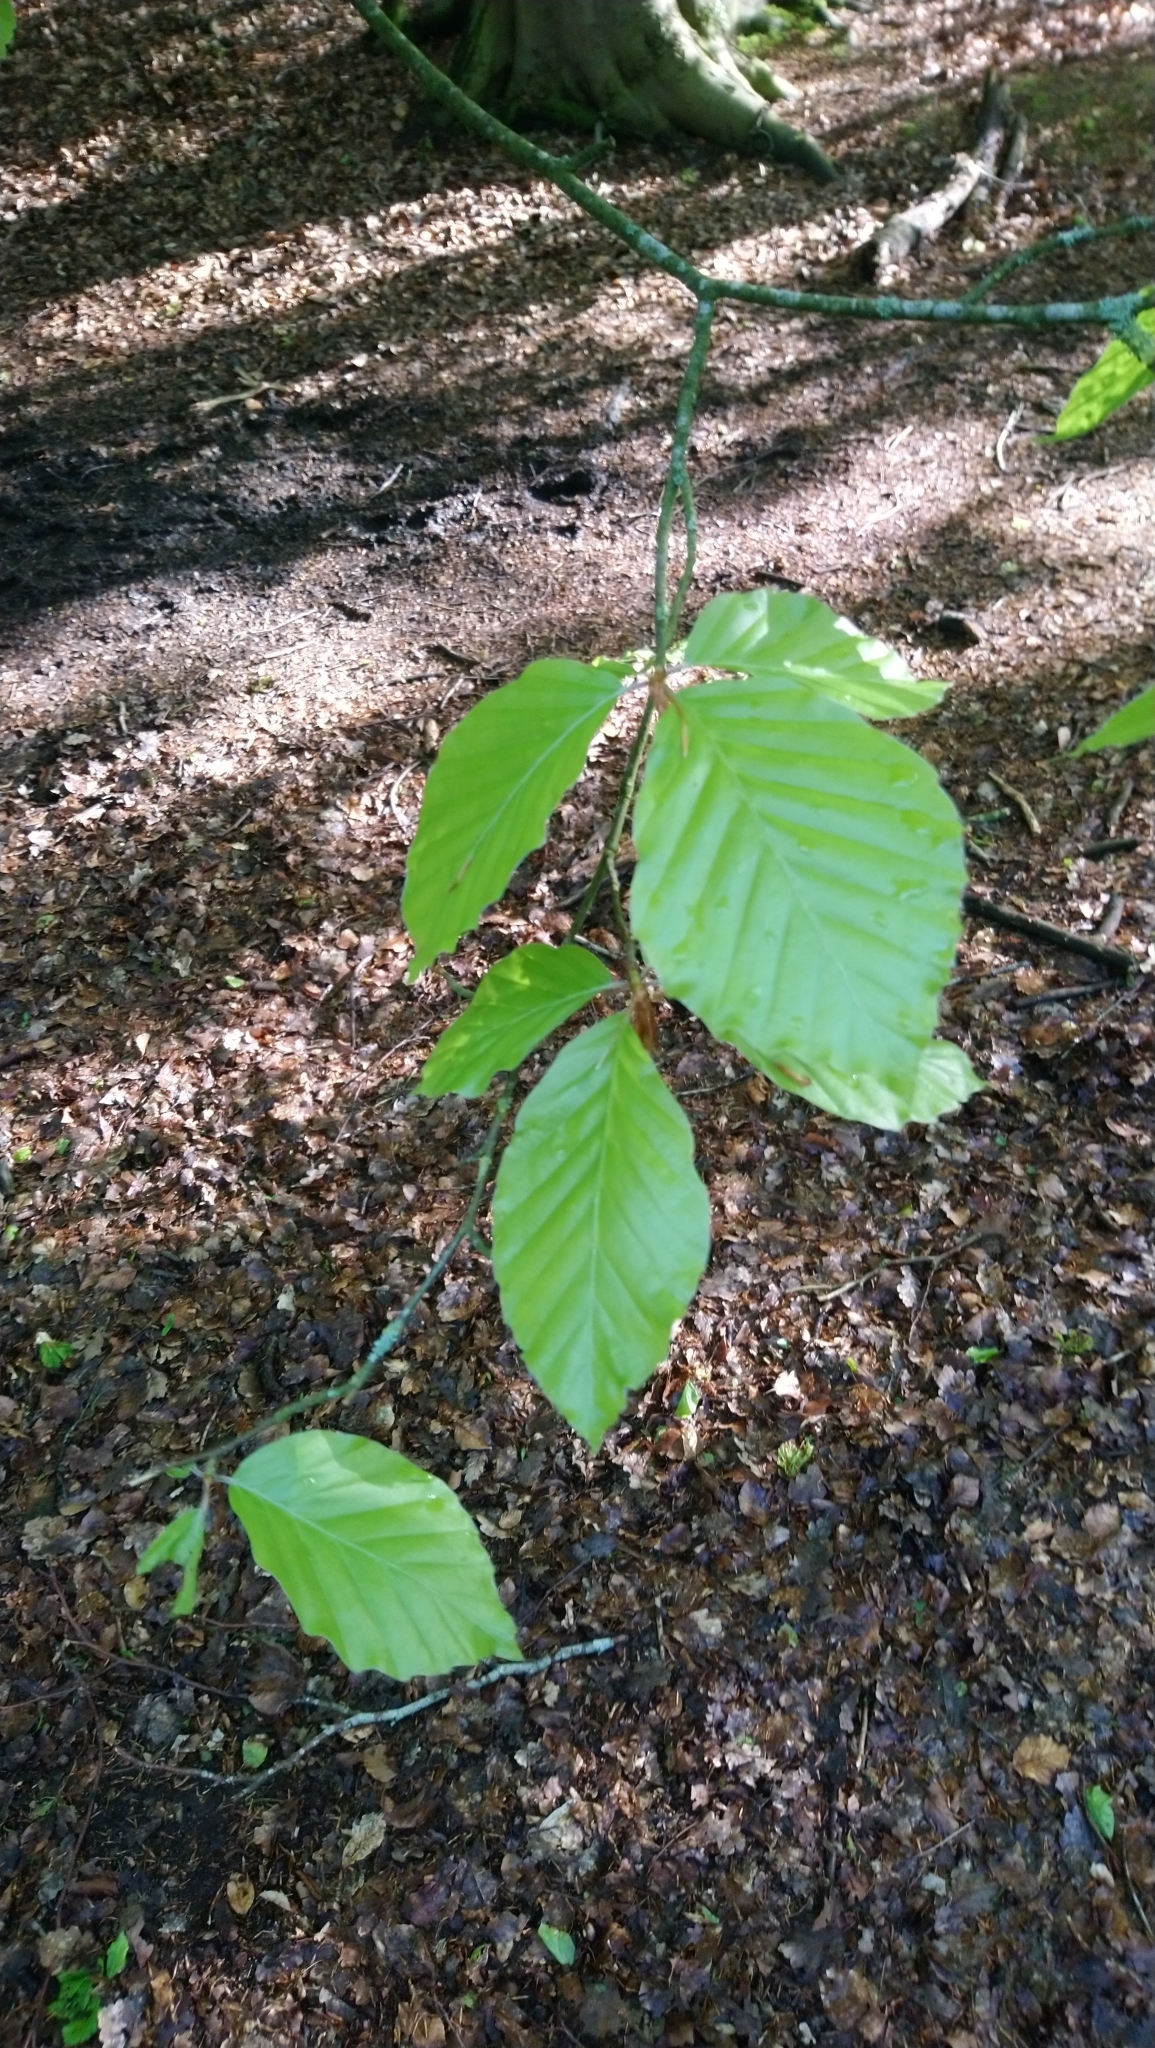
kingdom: Plantae
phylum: Tracheophyta
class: Magnoliopsida
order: Fagales
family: Fagaceae
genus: Fagus
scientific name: Fagus sylvatica
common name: Beech
